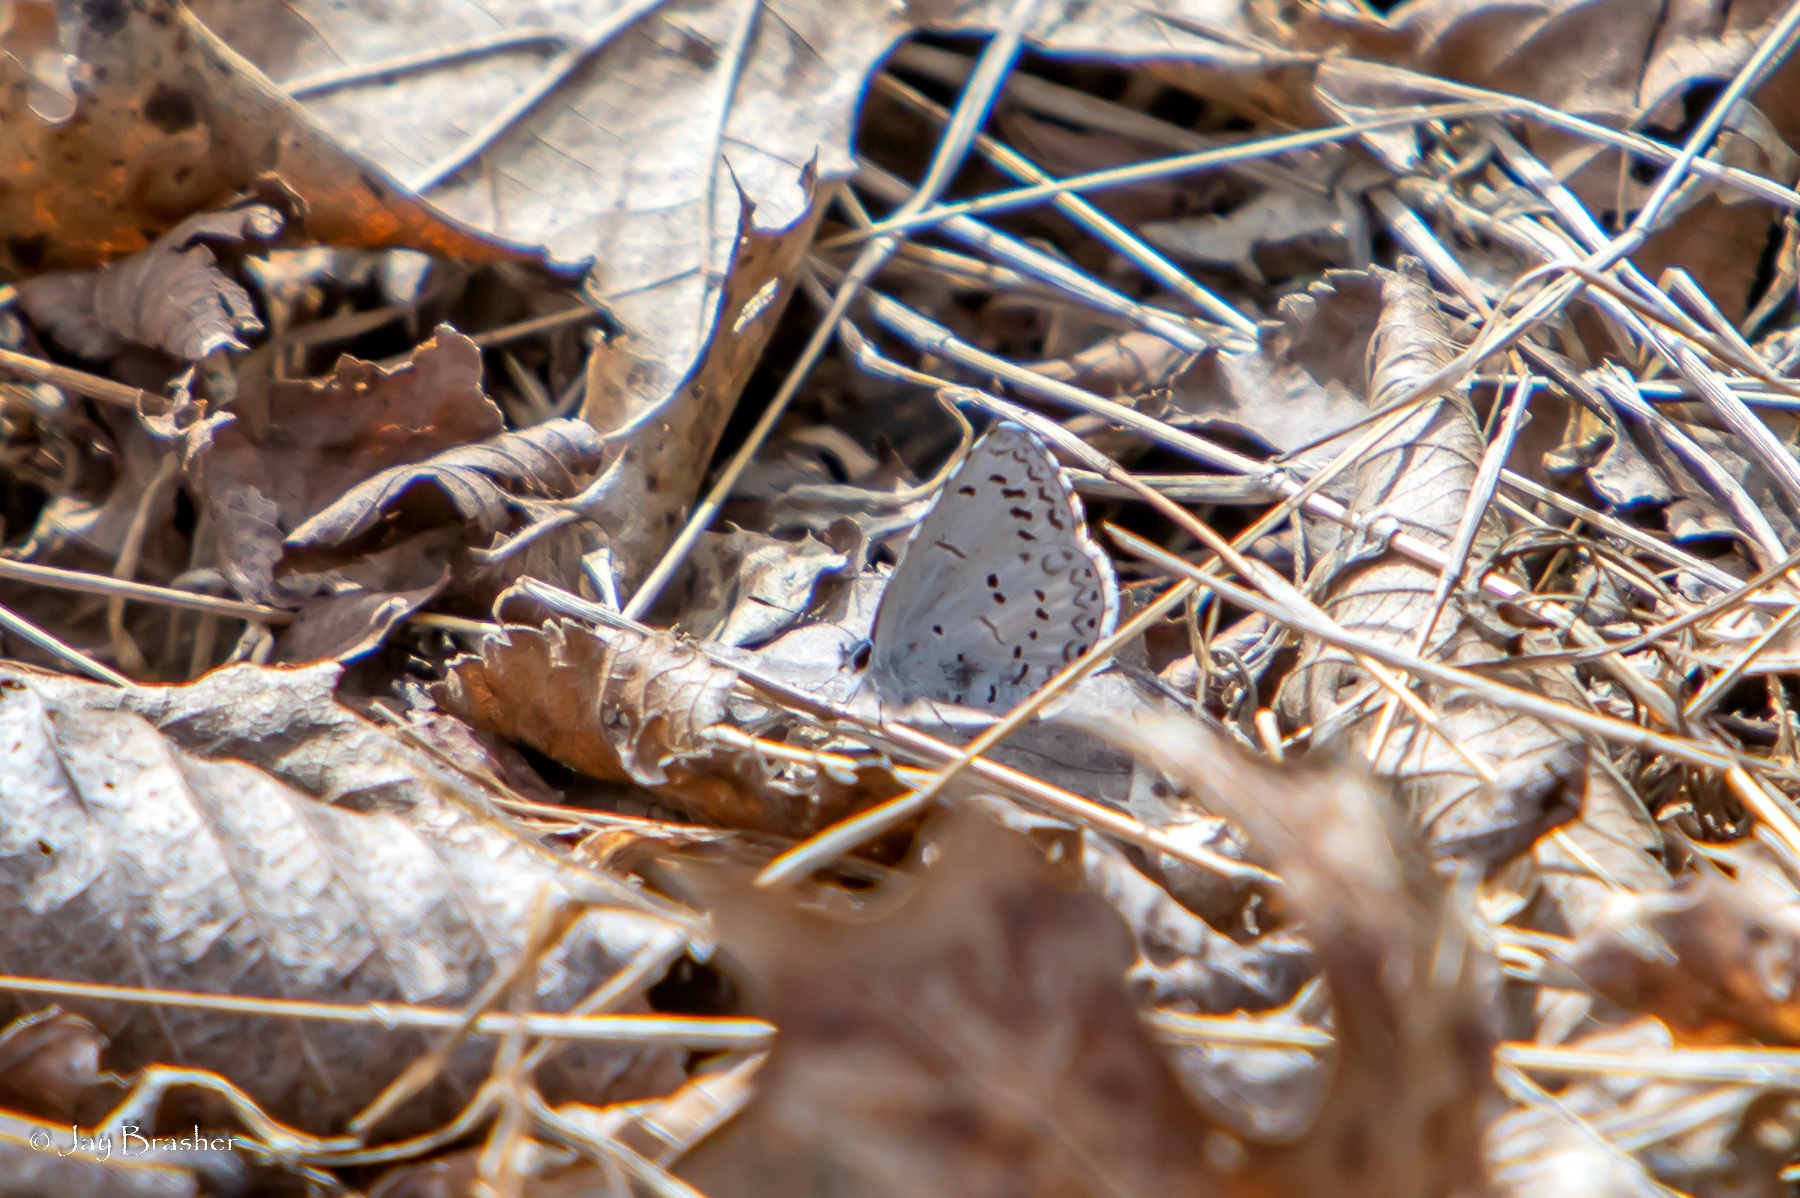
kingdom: Animalia
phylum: Arthropoda
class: Insecta
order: Lepidoptera
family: Lycaenidae
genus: Celastrina
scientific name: Celastrina ladon
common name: Spring azure
